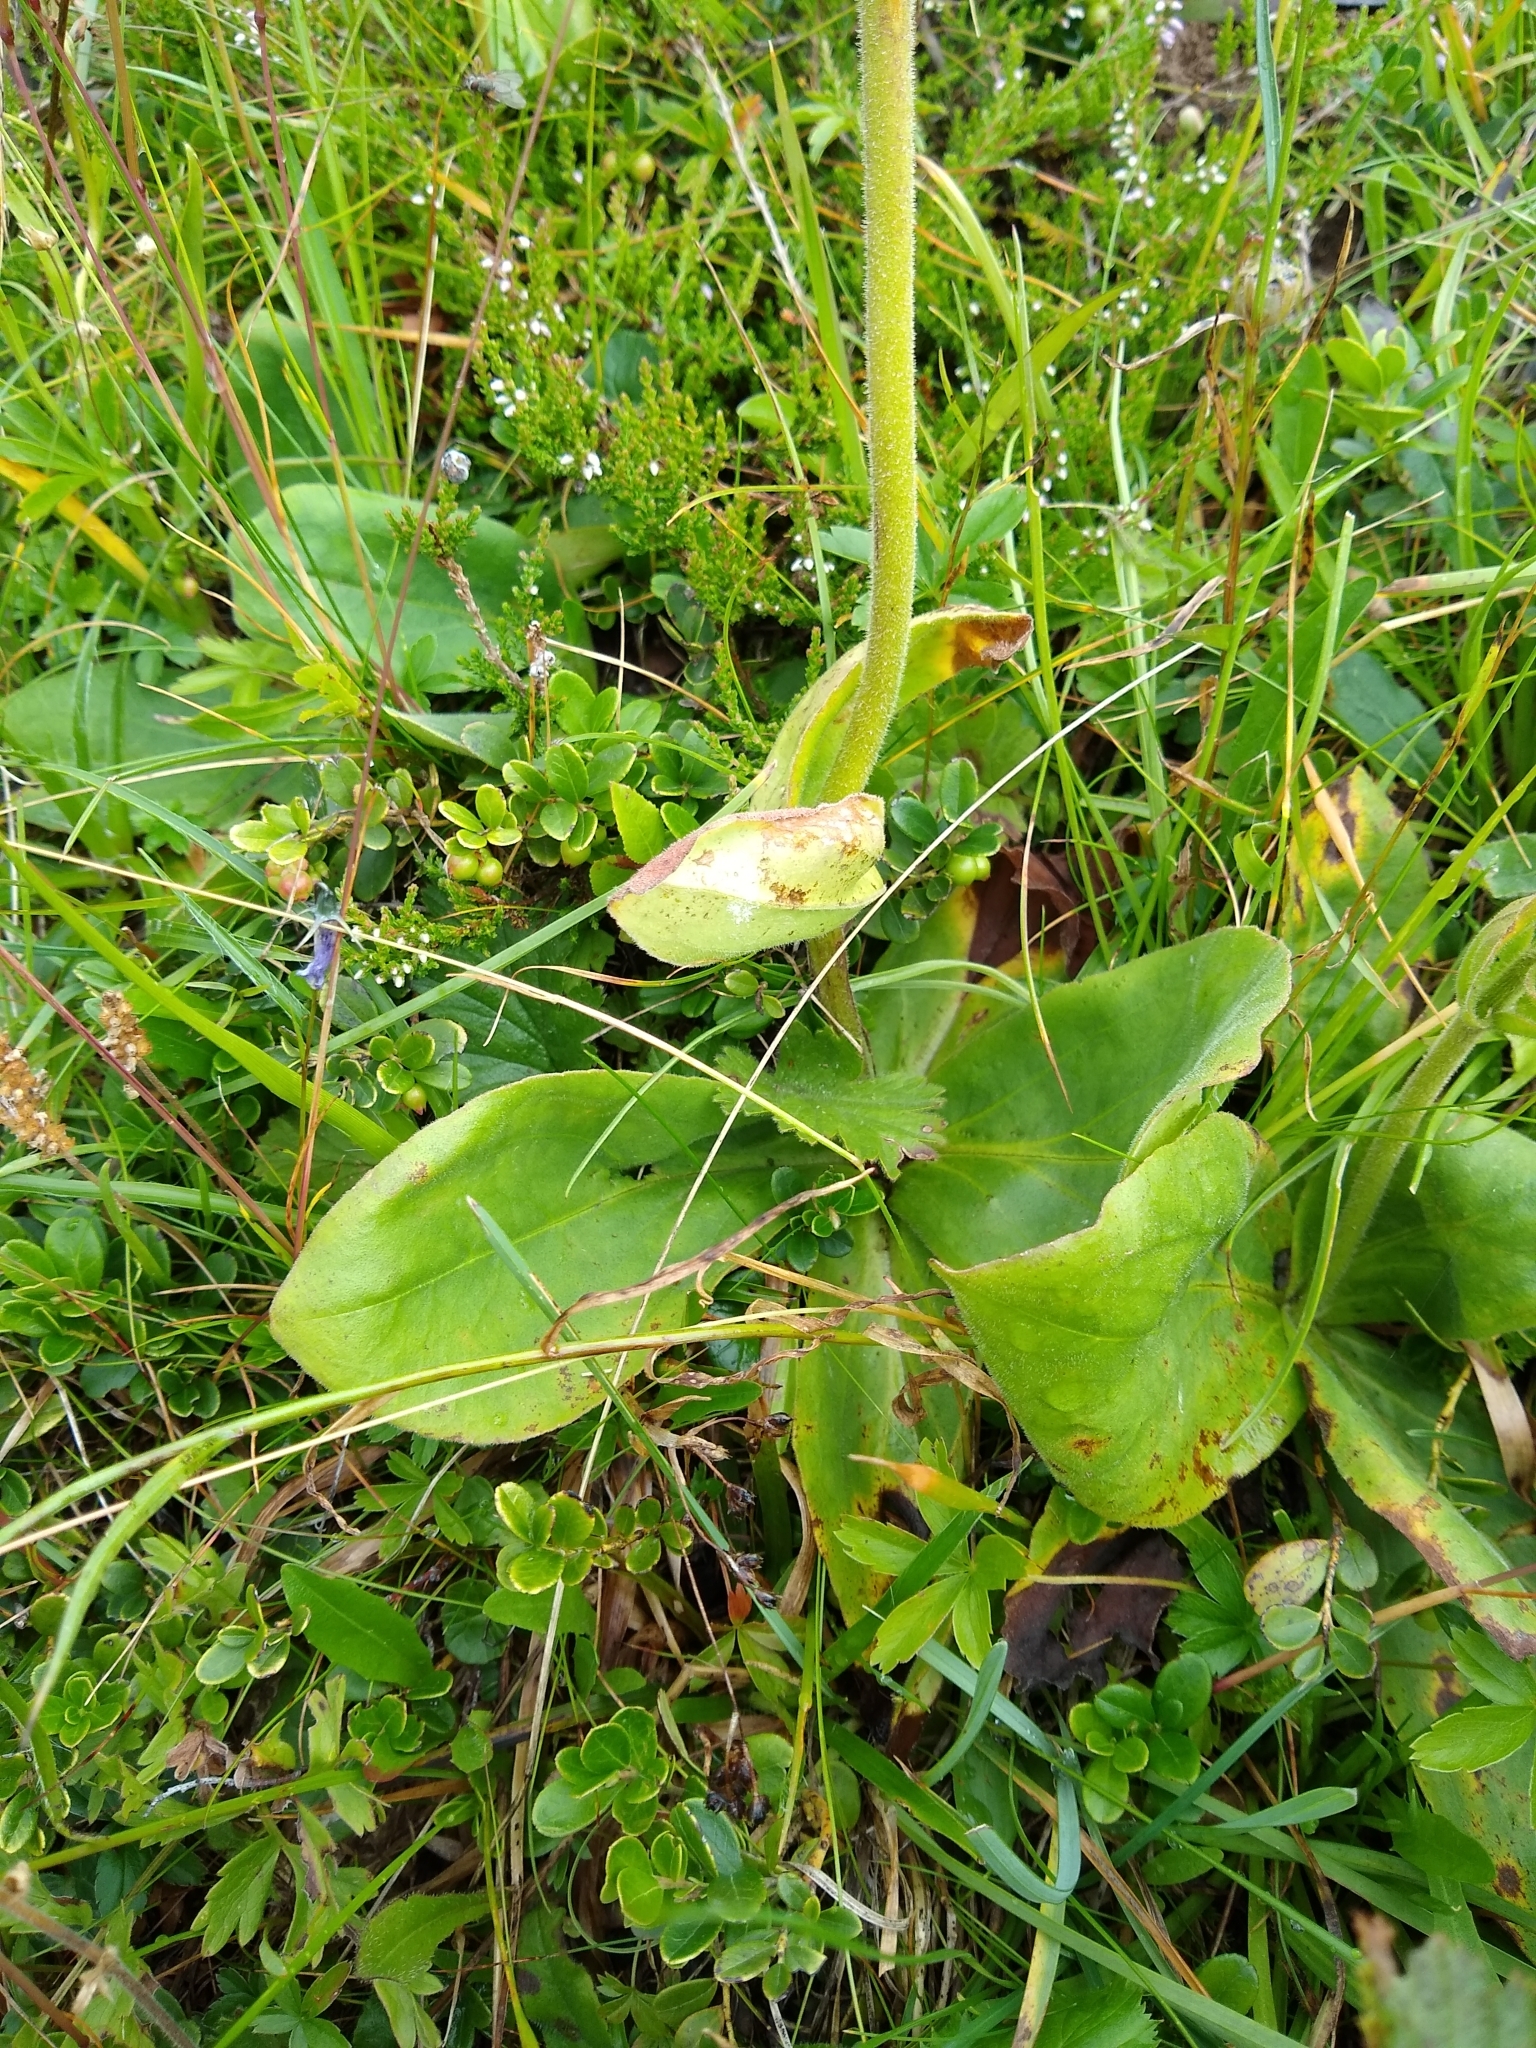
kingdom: Plantae
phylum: Tracheophyta
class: Magnoliopsida
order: Asterales
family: Asteraceae
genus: Arnica
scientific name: Arnica montana
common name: Leopard's bane
